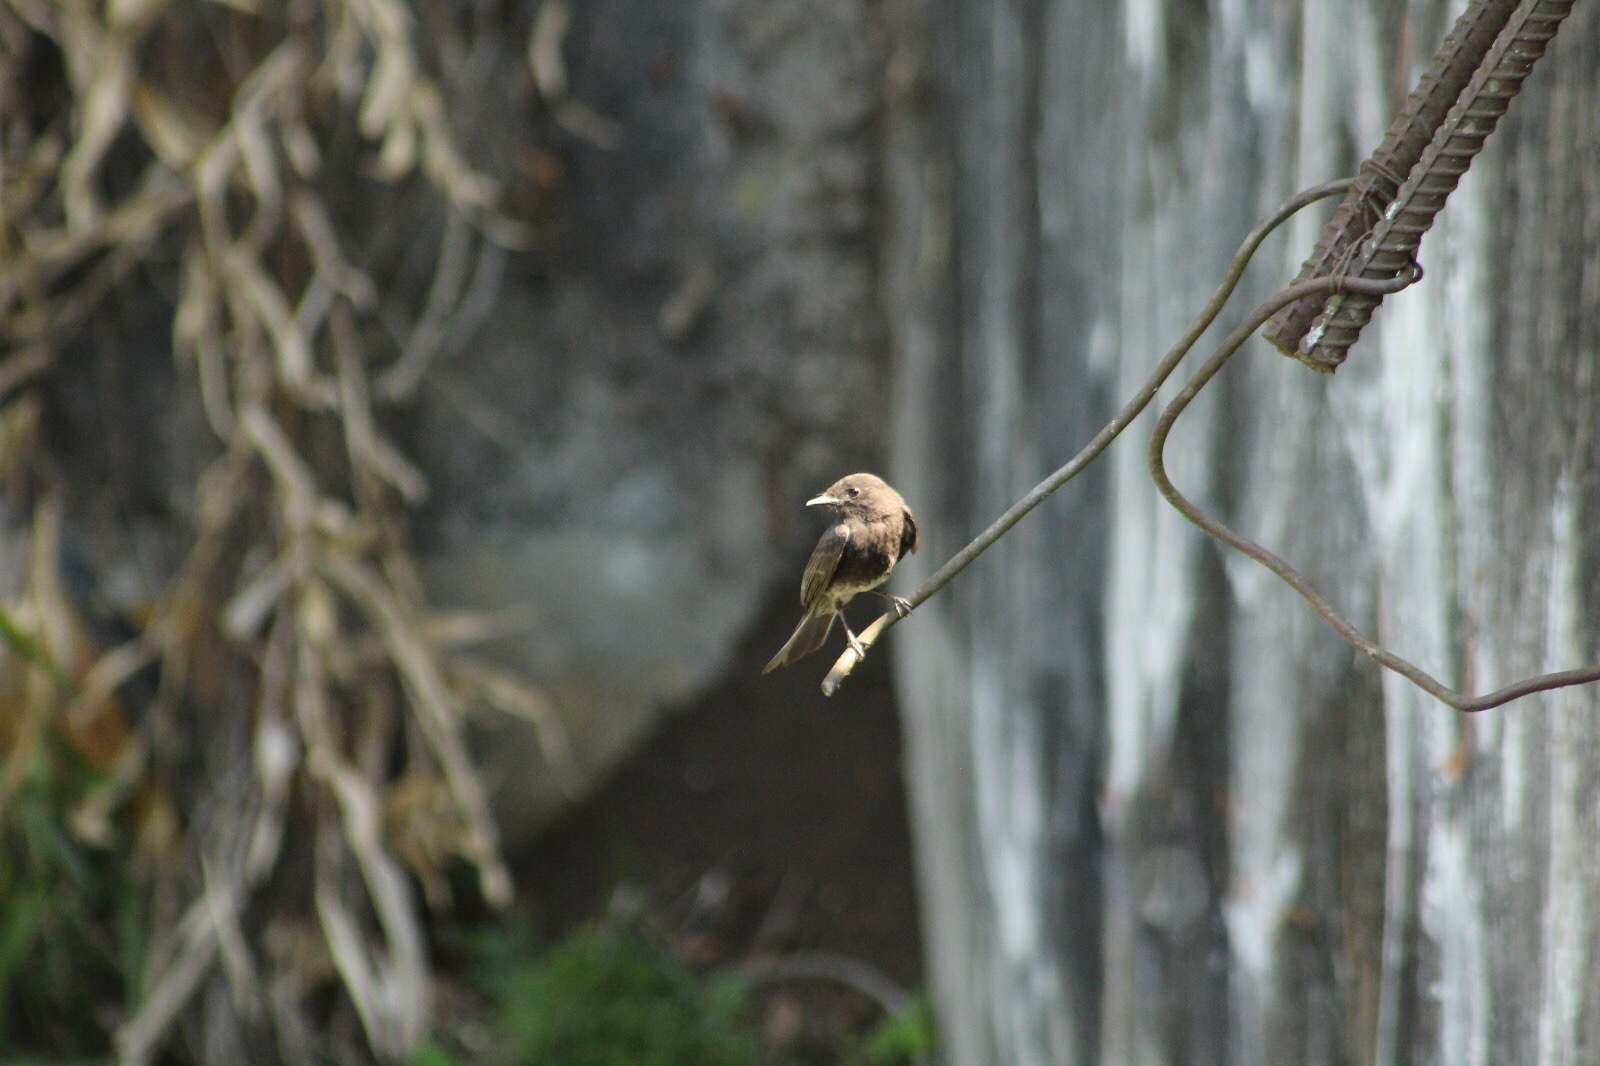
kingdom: Animalia
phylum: Chordata
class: Aves
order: Passeriformes
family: Tyrannidae
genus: Sayornis
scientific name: Sayornis nigricans
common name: Black phoebe
